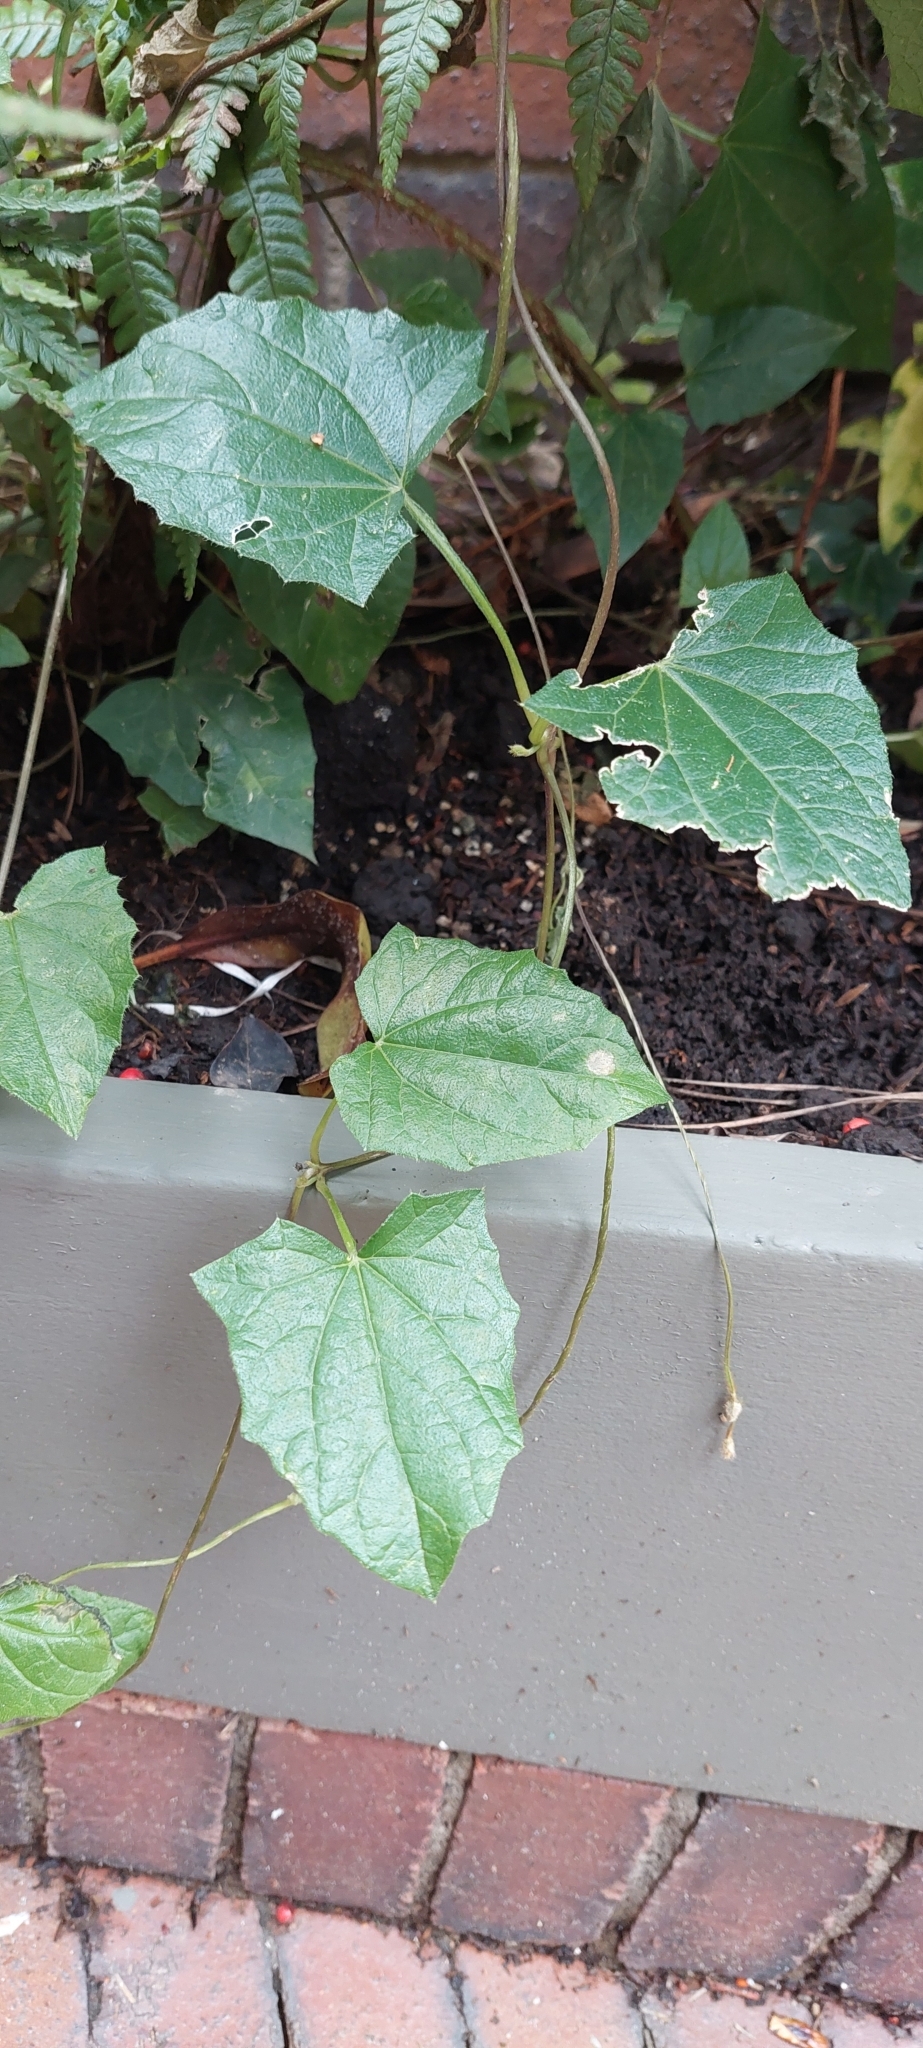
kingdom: Plantae
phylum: Tracheophyta
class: Magnoliopsida
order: Lamiales
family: Acanthaceae
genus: Thunbergia
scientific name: Thunbergia alata
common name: Blackeyed susan vine
